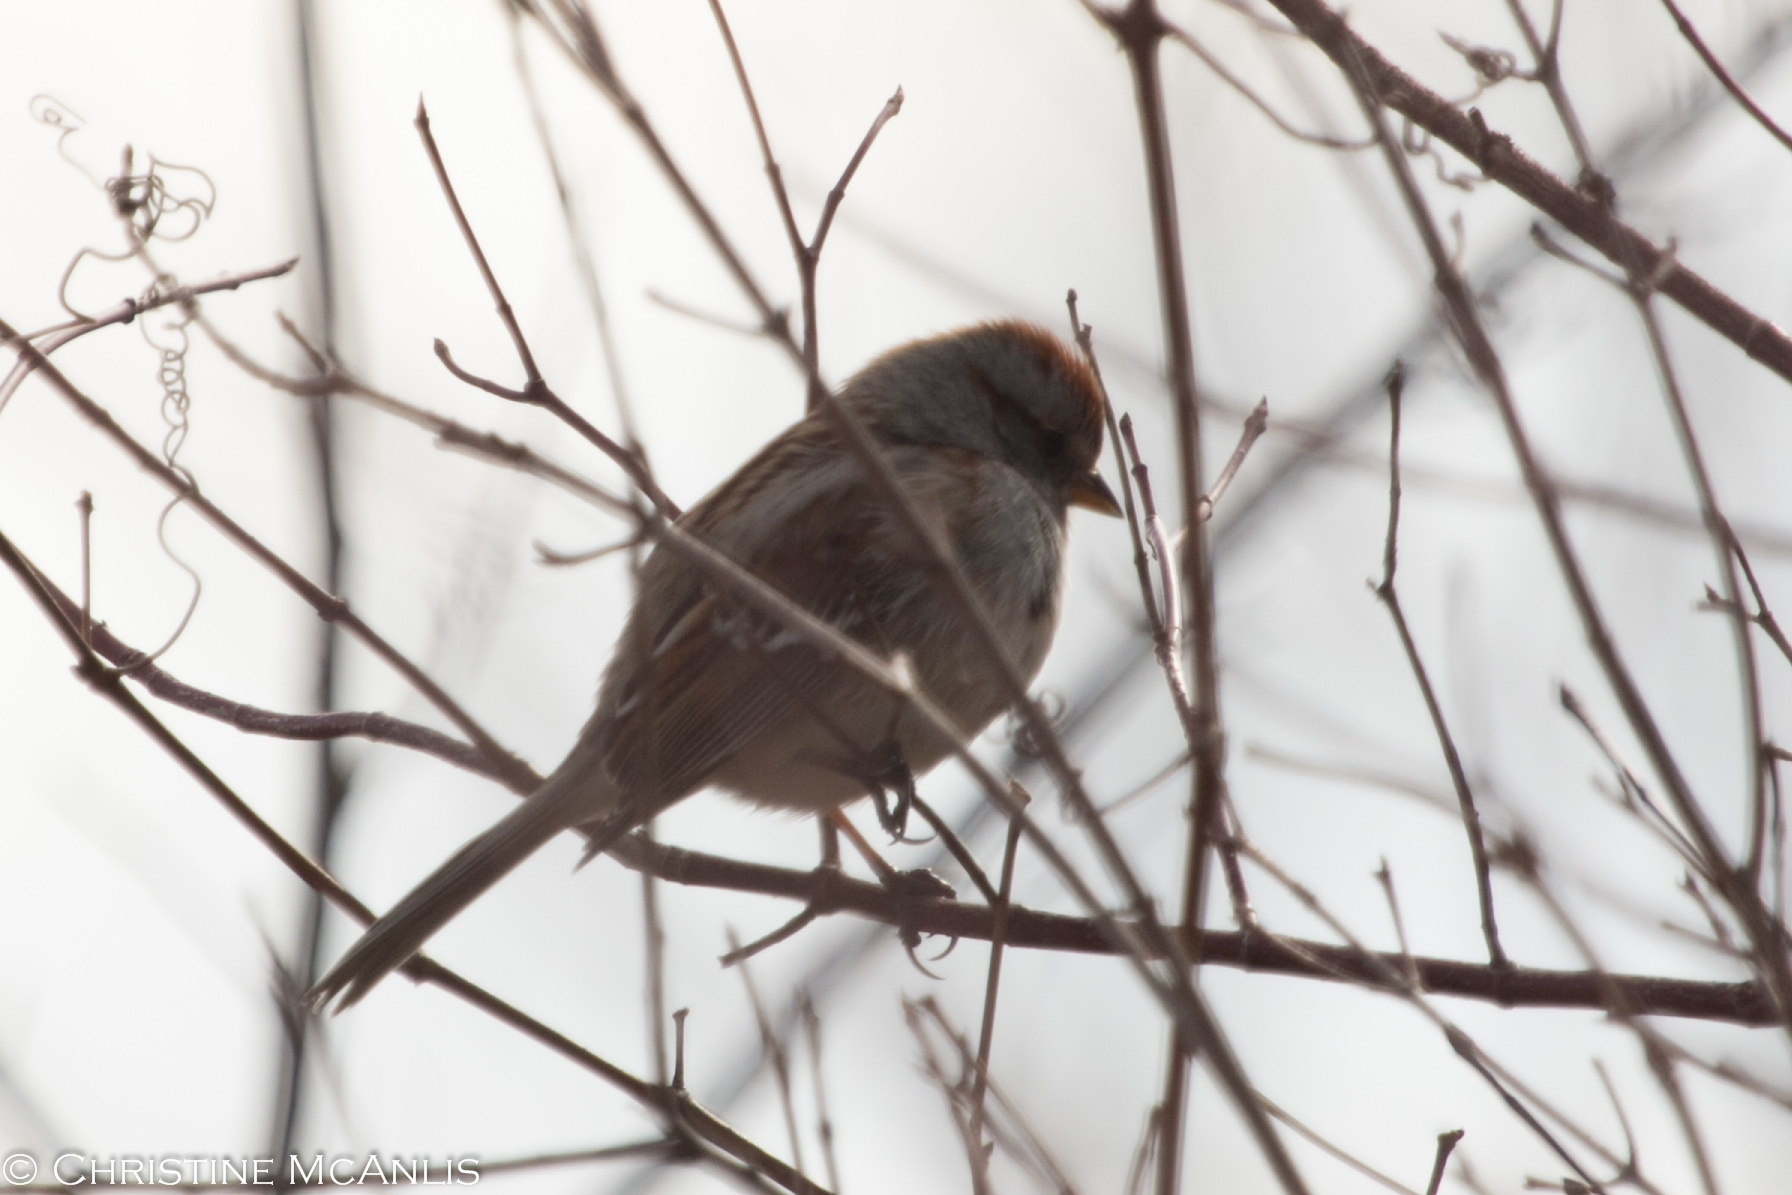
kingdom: Animalia
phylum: Chordata
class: Aves
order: Passeriformes
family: Passerellidae
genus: Spizelloides
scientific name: Spizelloides arborea
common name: American tree sparrow
